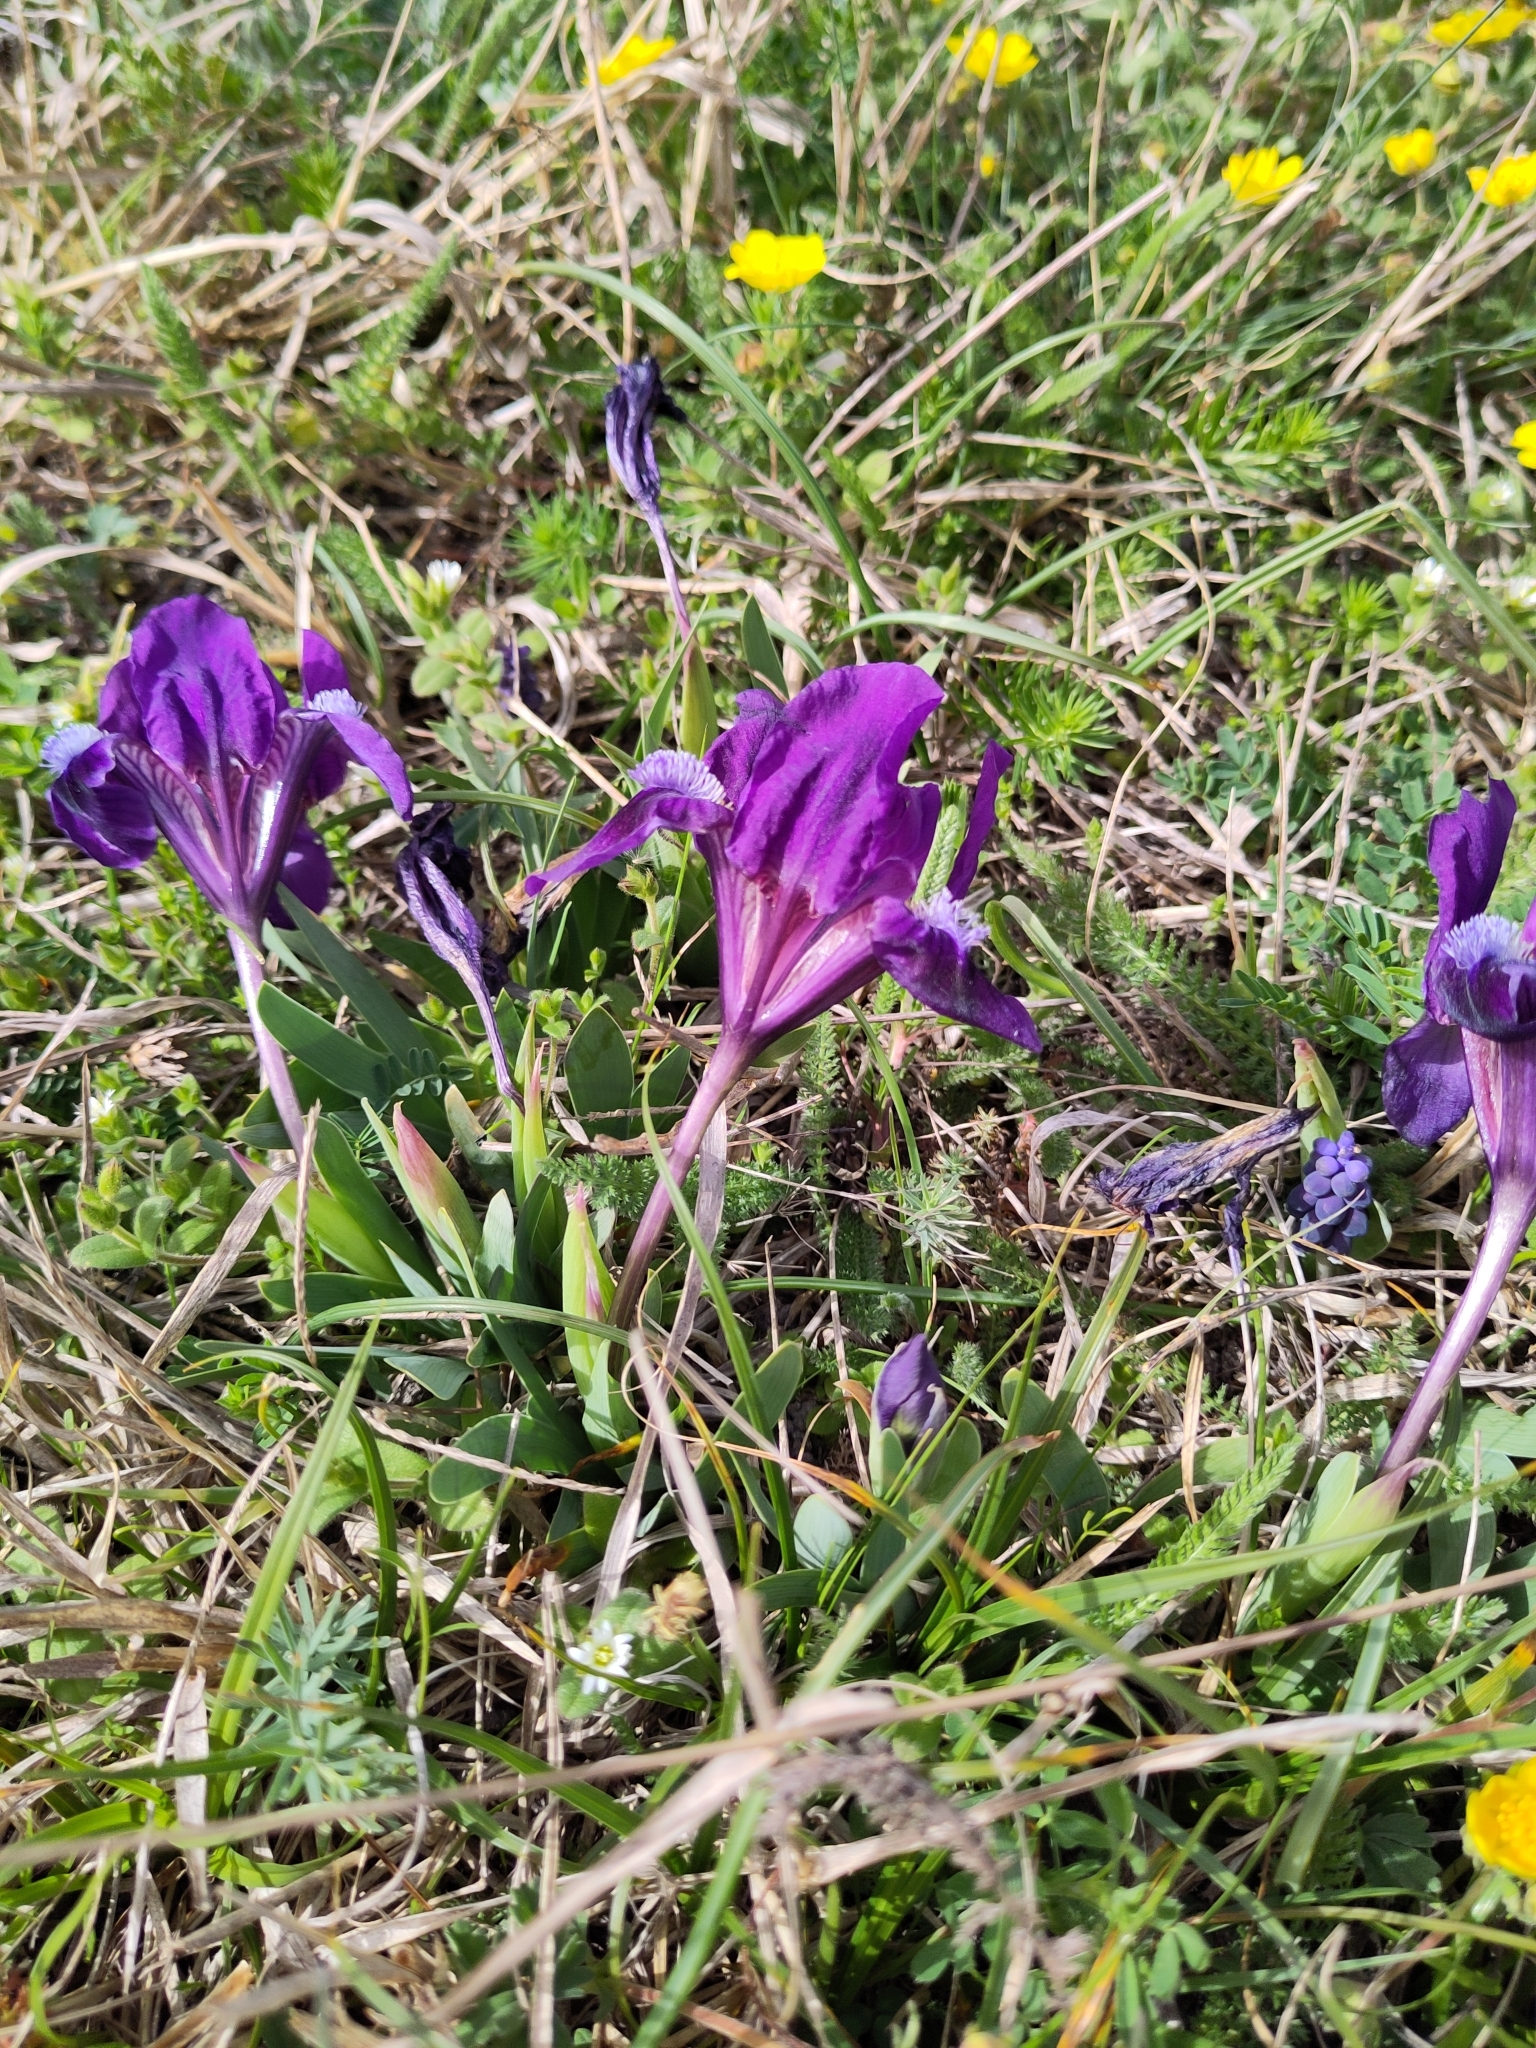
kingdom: Plantae
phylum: Tracheophyta
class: Liliopsida
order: Asparagales
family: Iridaceae
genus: Iris
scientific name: Iris pumila
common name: Dwarf iris
